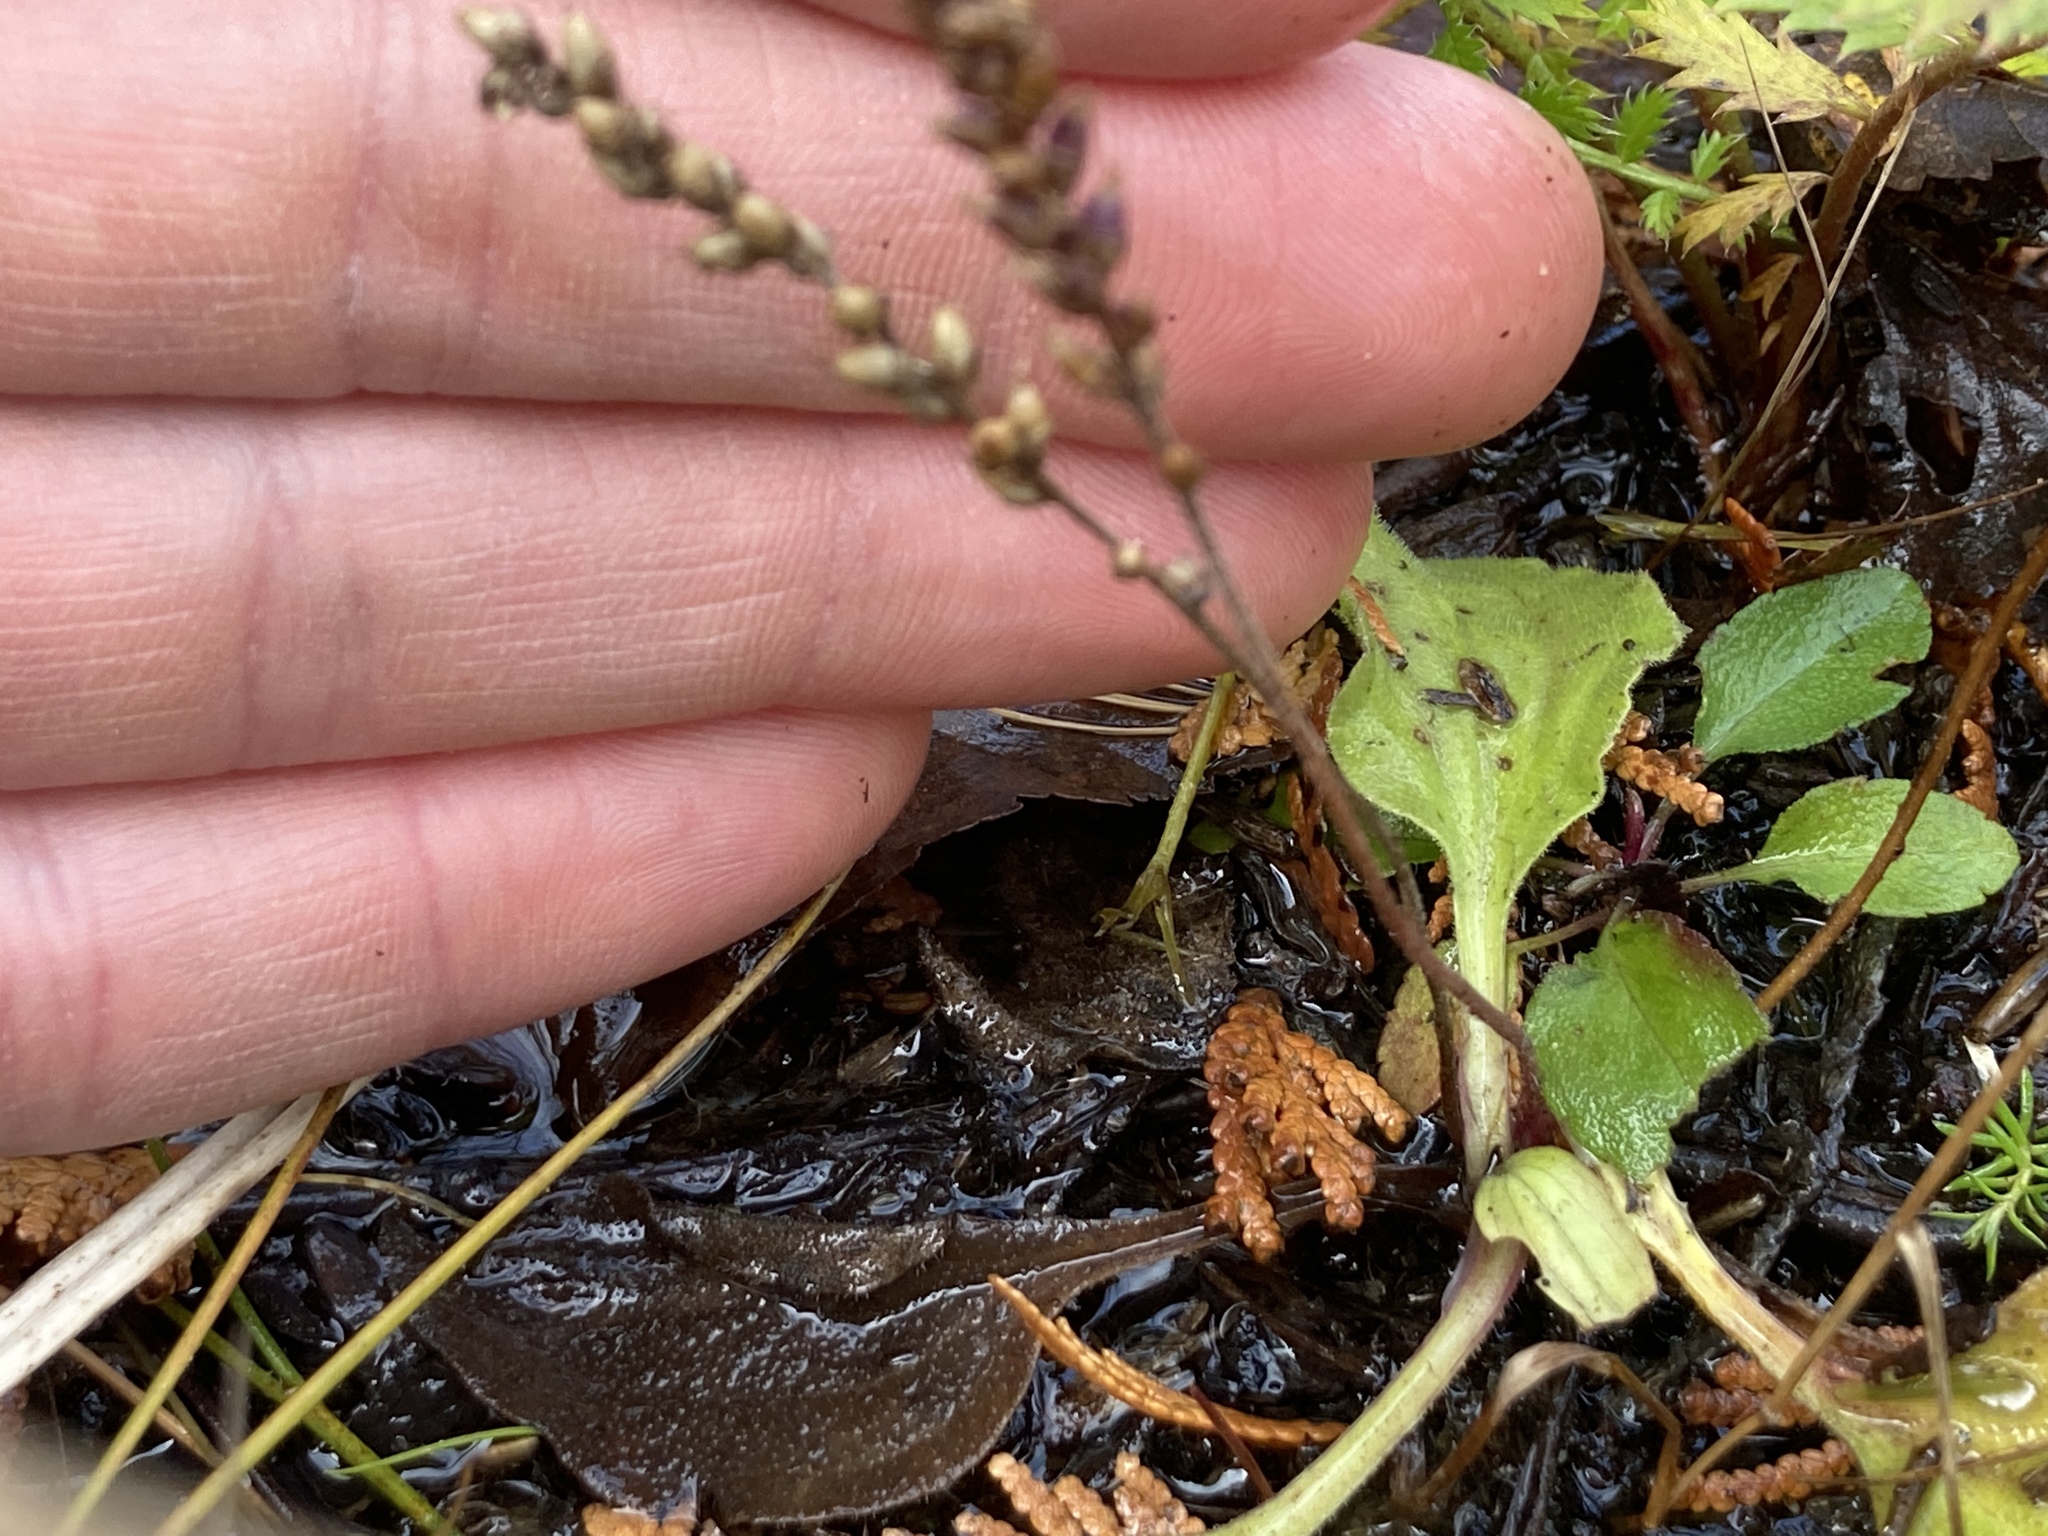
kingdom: Plantae
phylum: Tracheophyta
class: Magnoliopsida
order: Lamiales
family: Plantaginaceae
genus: Plantago
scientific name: Plantago major
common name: Common plantain
